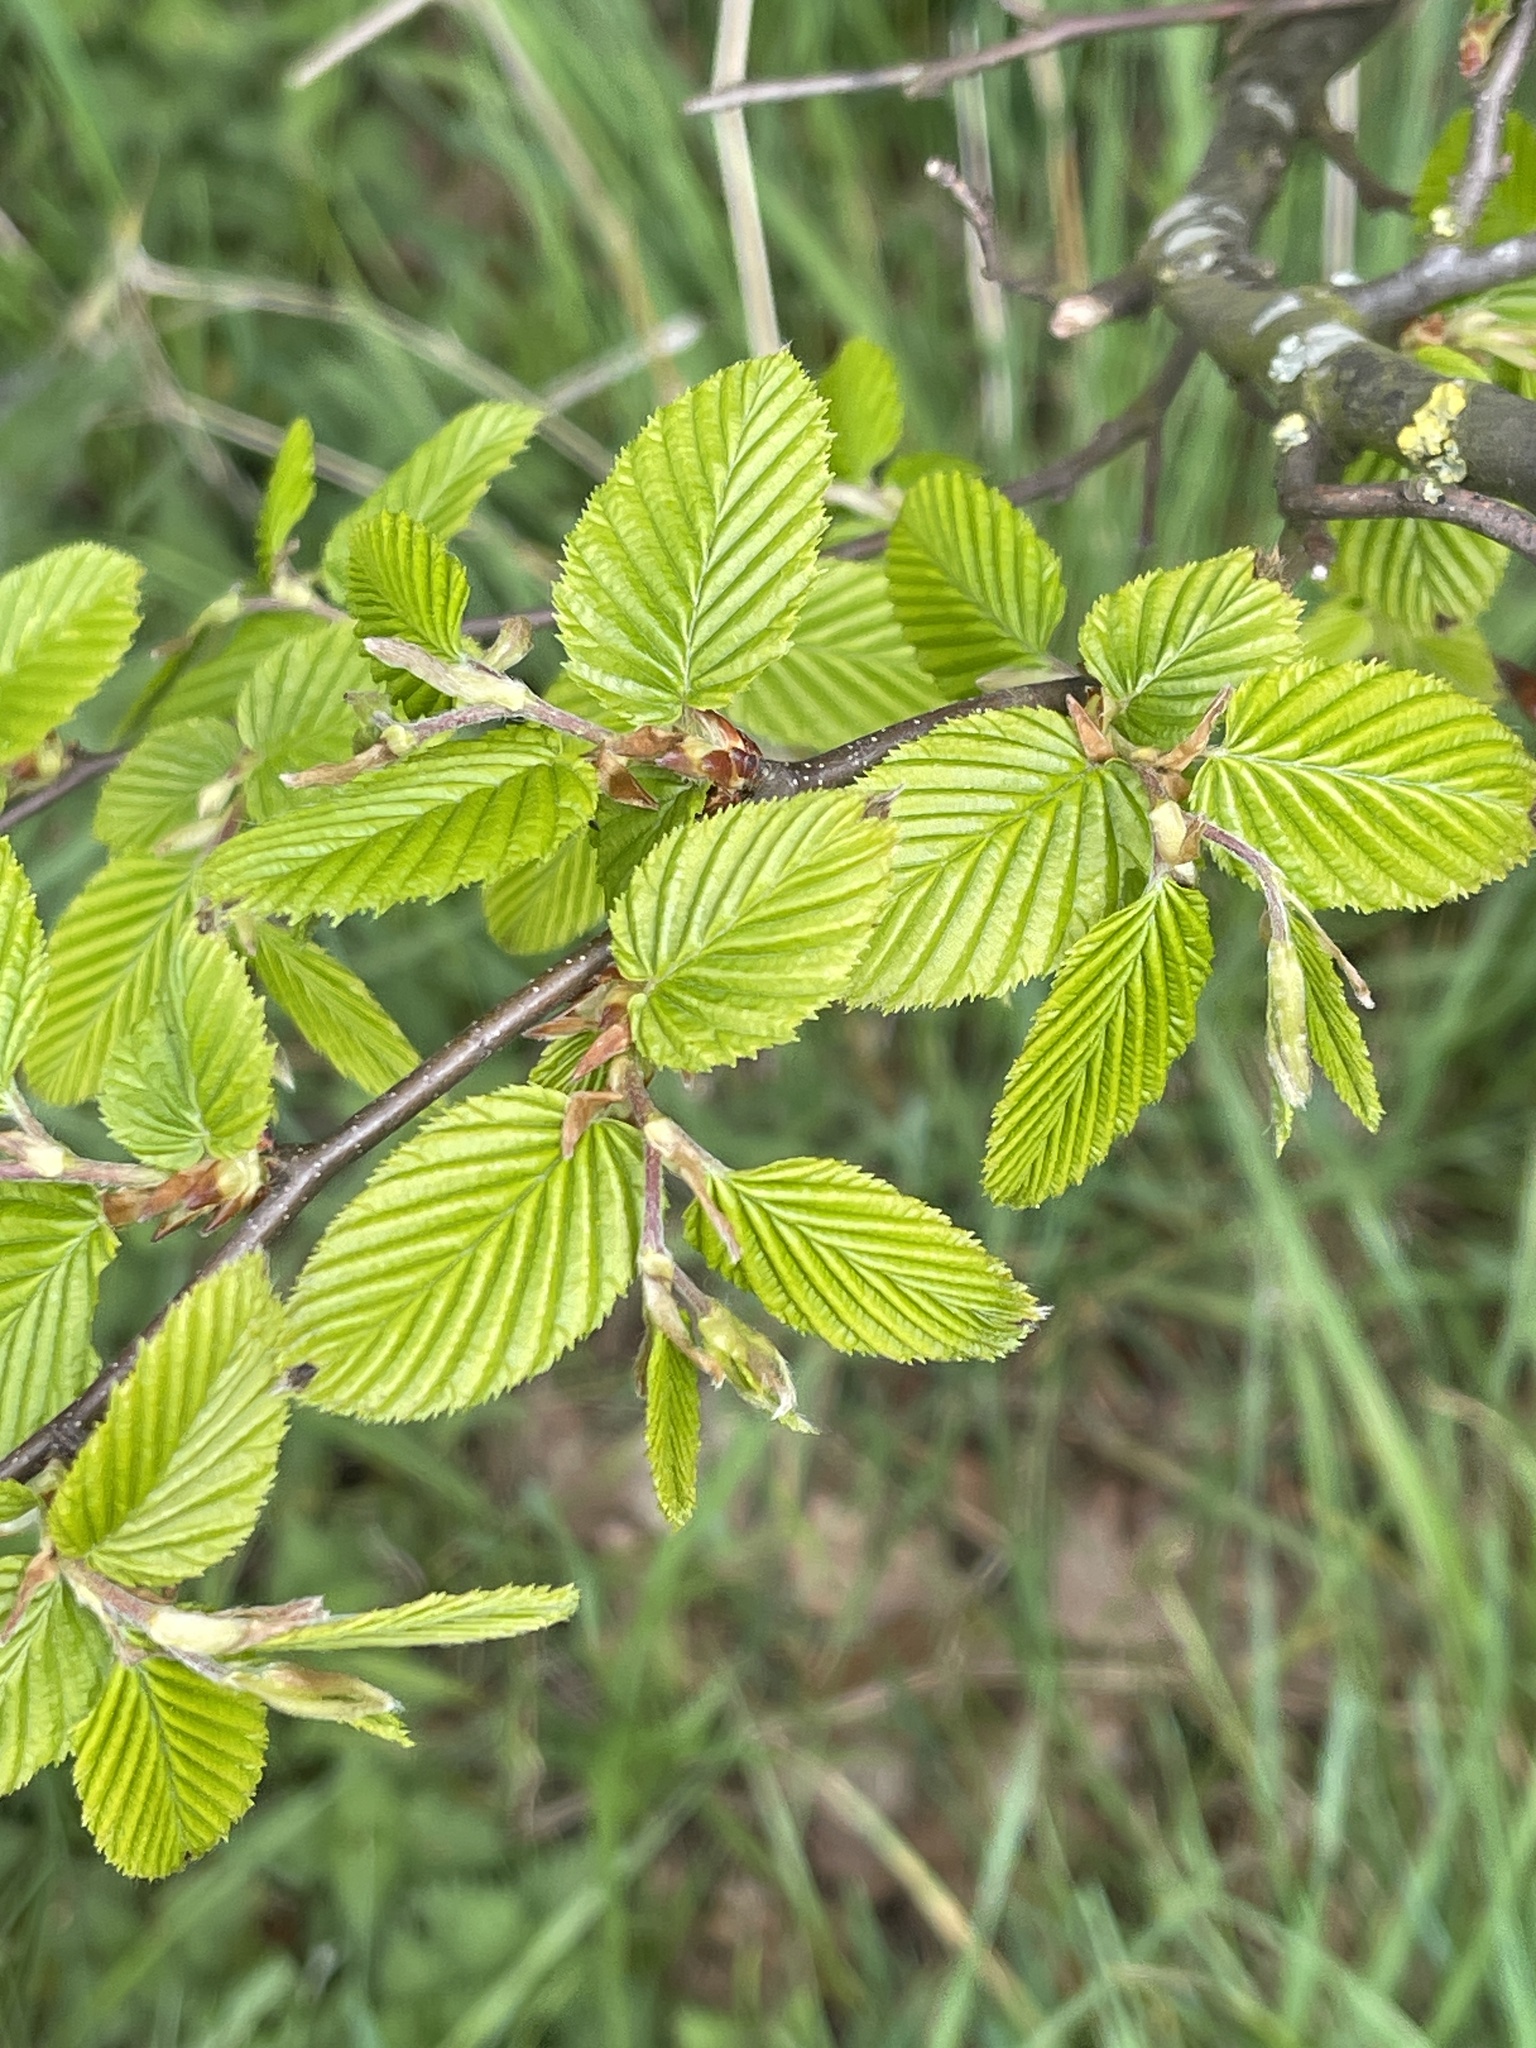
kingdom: Plantae
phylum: Tracheophyta
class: Magnoliopsida
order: Fagales
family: Betulaceae
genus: Carpinus
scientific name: Carpinus betulus
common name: Hornbeam
